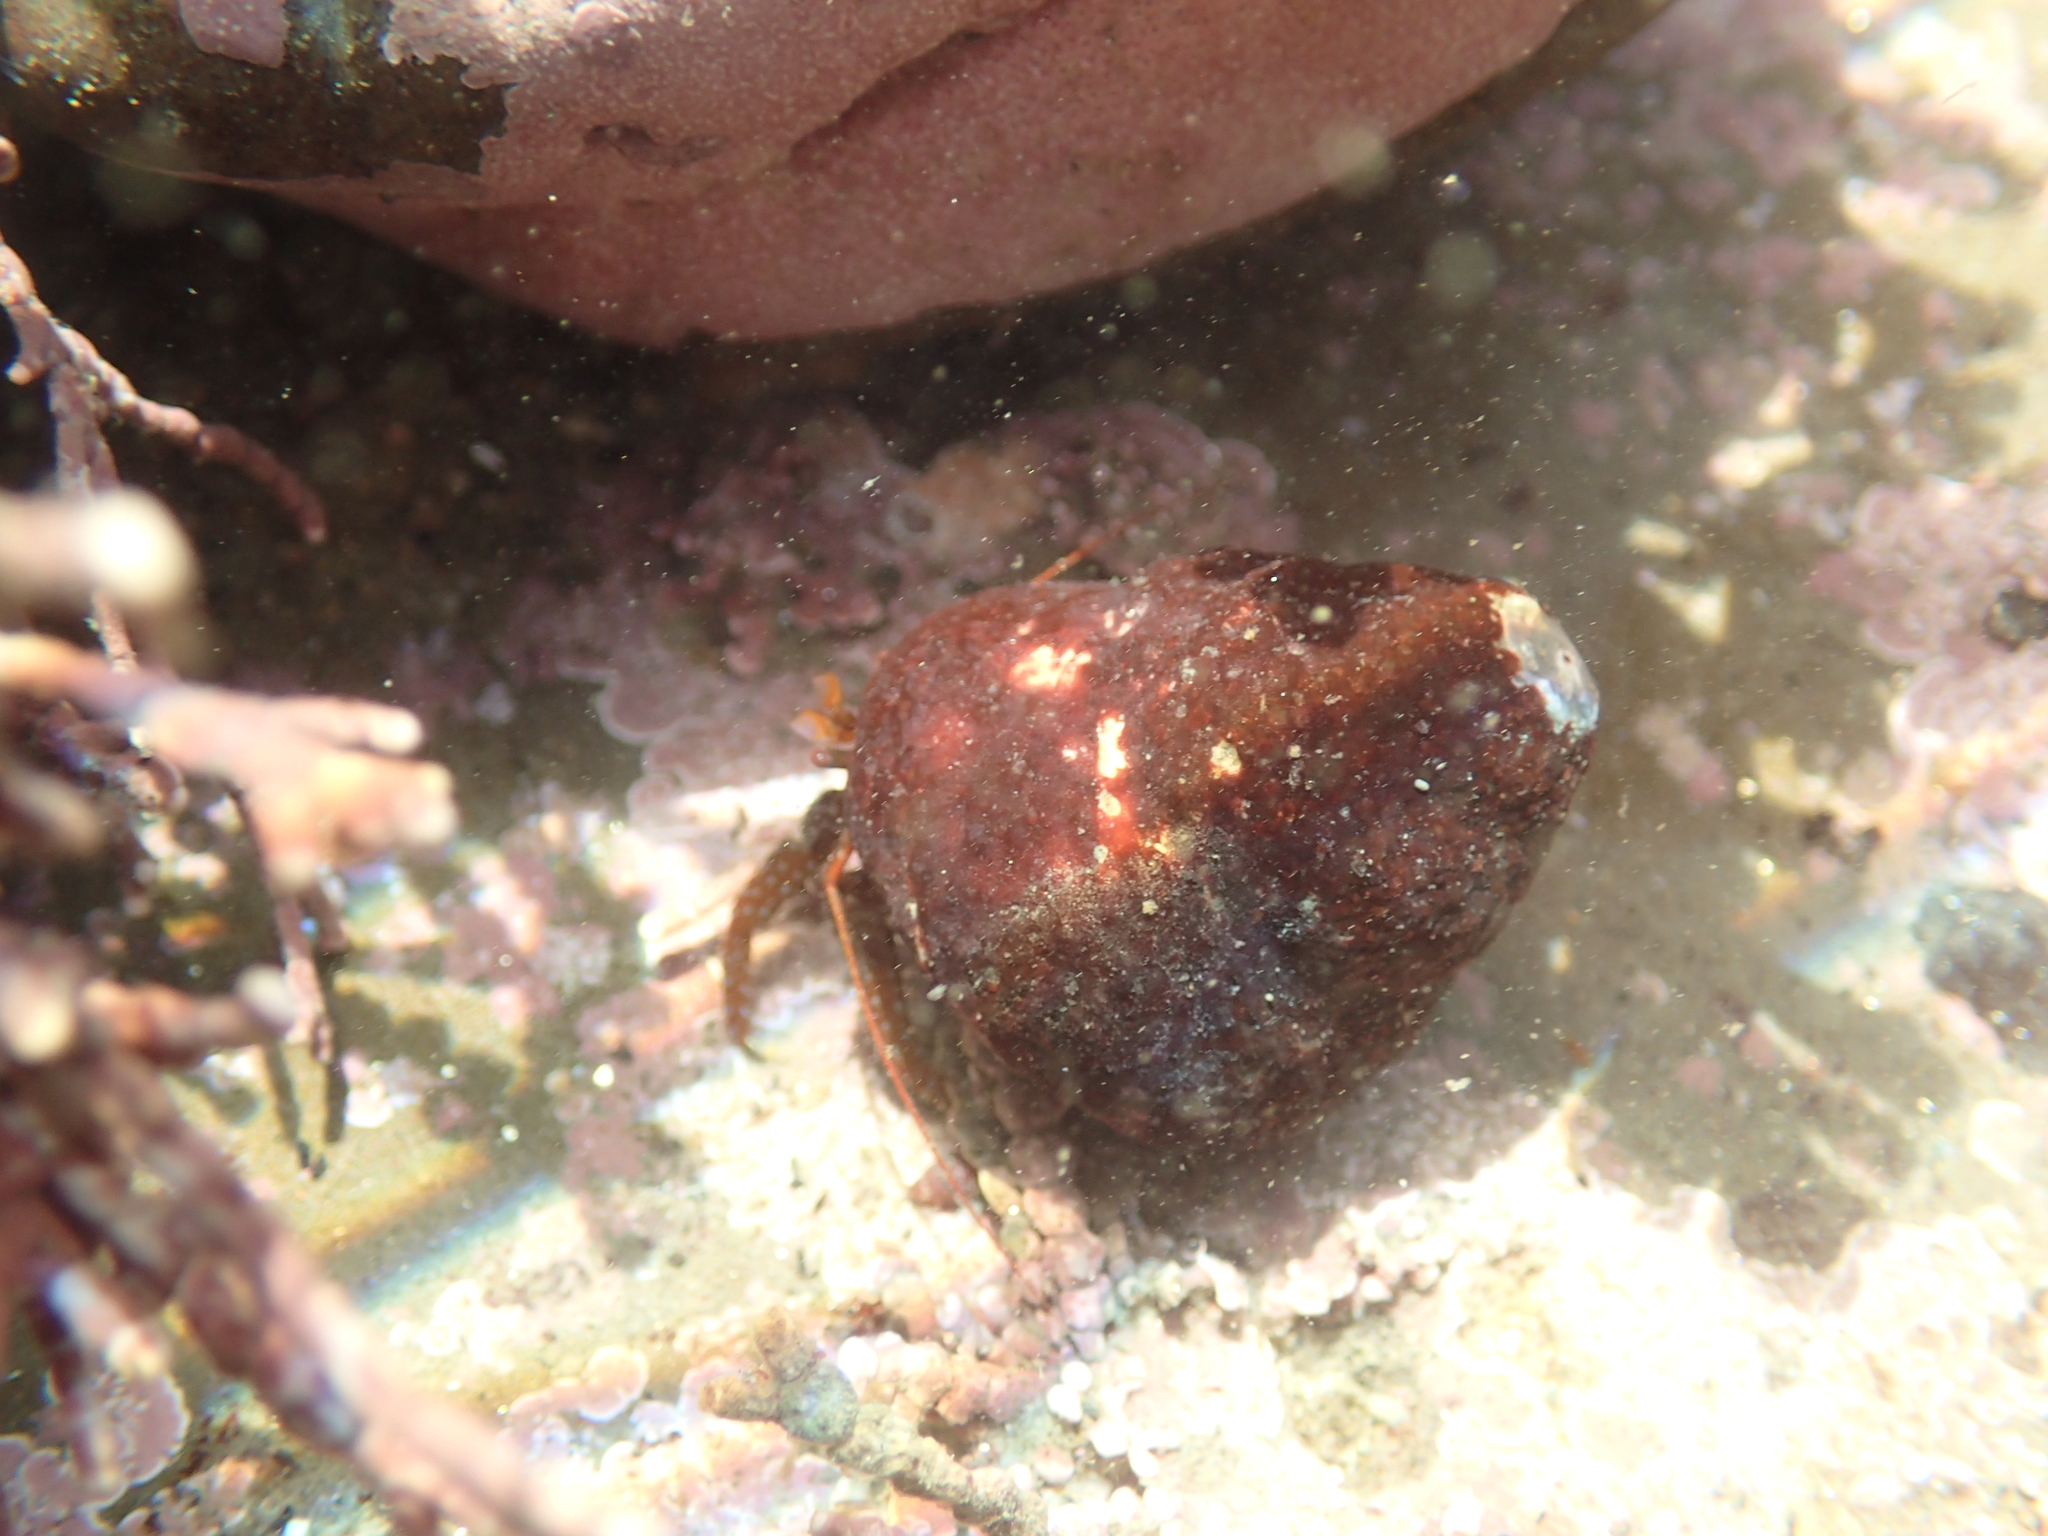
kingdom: Animalia
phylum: Arthropoda
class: Malacostraca
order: Decapoda
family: Paguridae
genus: Pagurus
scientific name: Pagurus granosimanus
